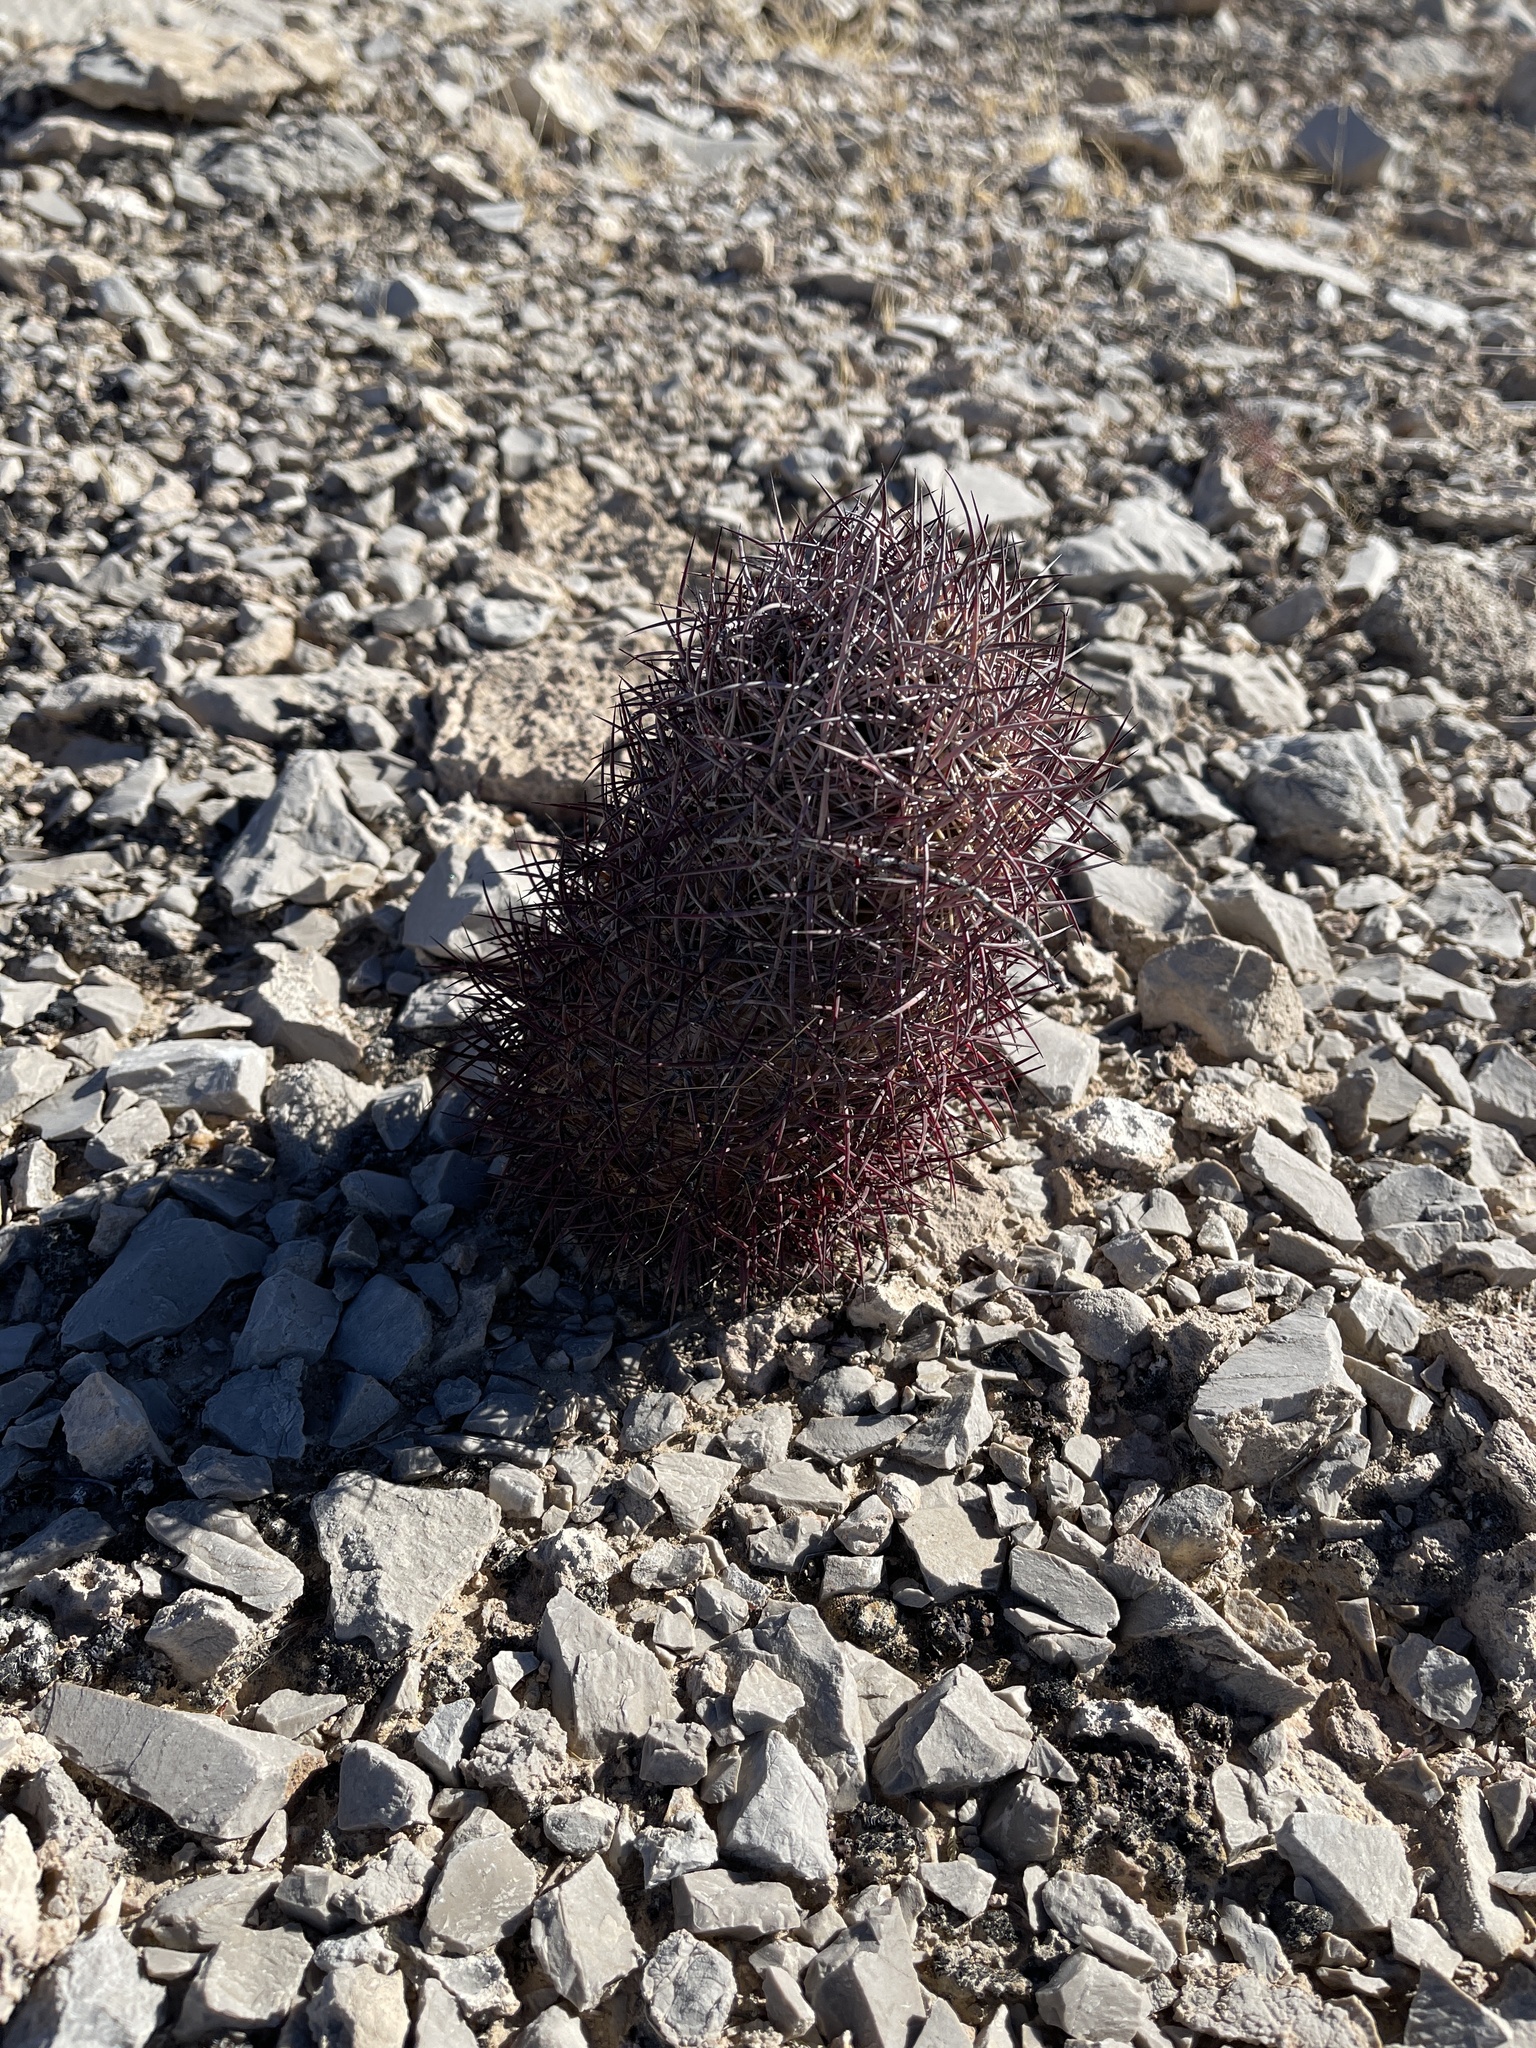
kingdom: Plantae
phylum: Tracheophyta
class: Magnoliopsida
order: Caryophyllales
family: Cactaceae
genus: Sclerocactus
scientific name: Sclerocactus johnsonii
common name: Eight-spine fishhook cactus
